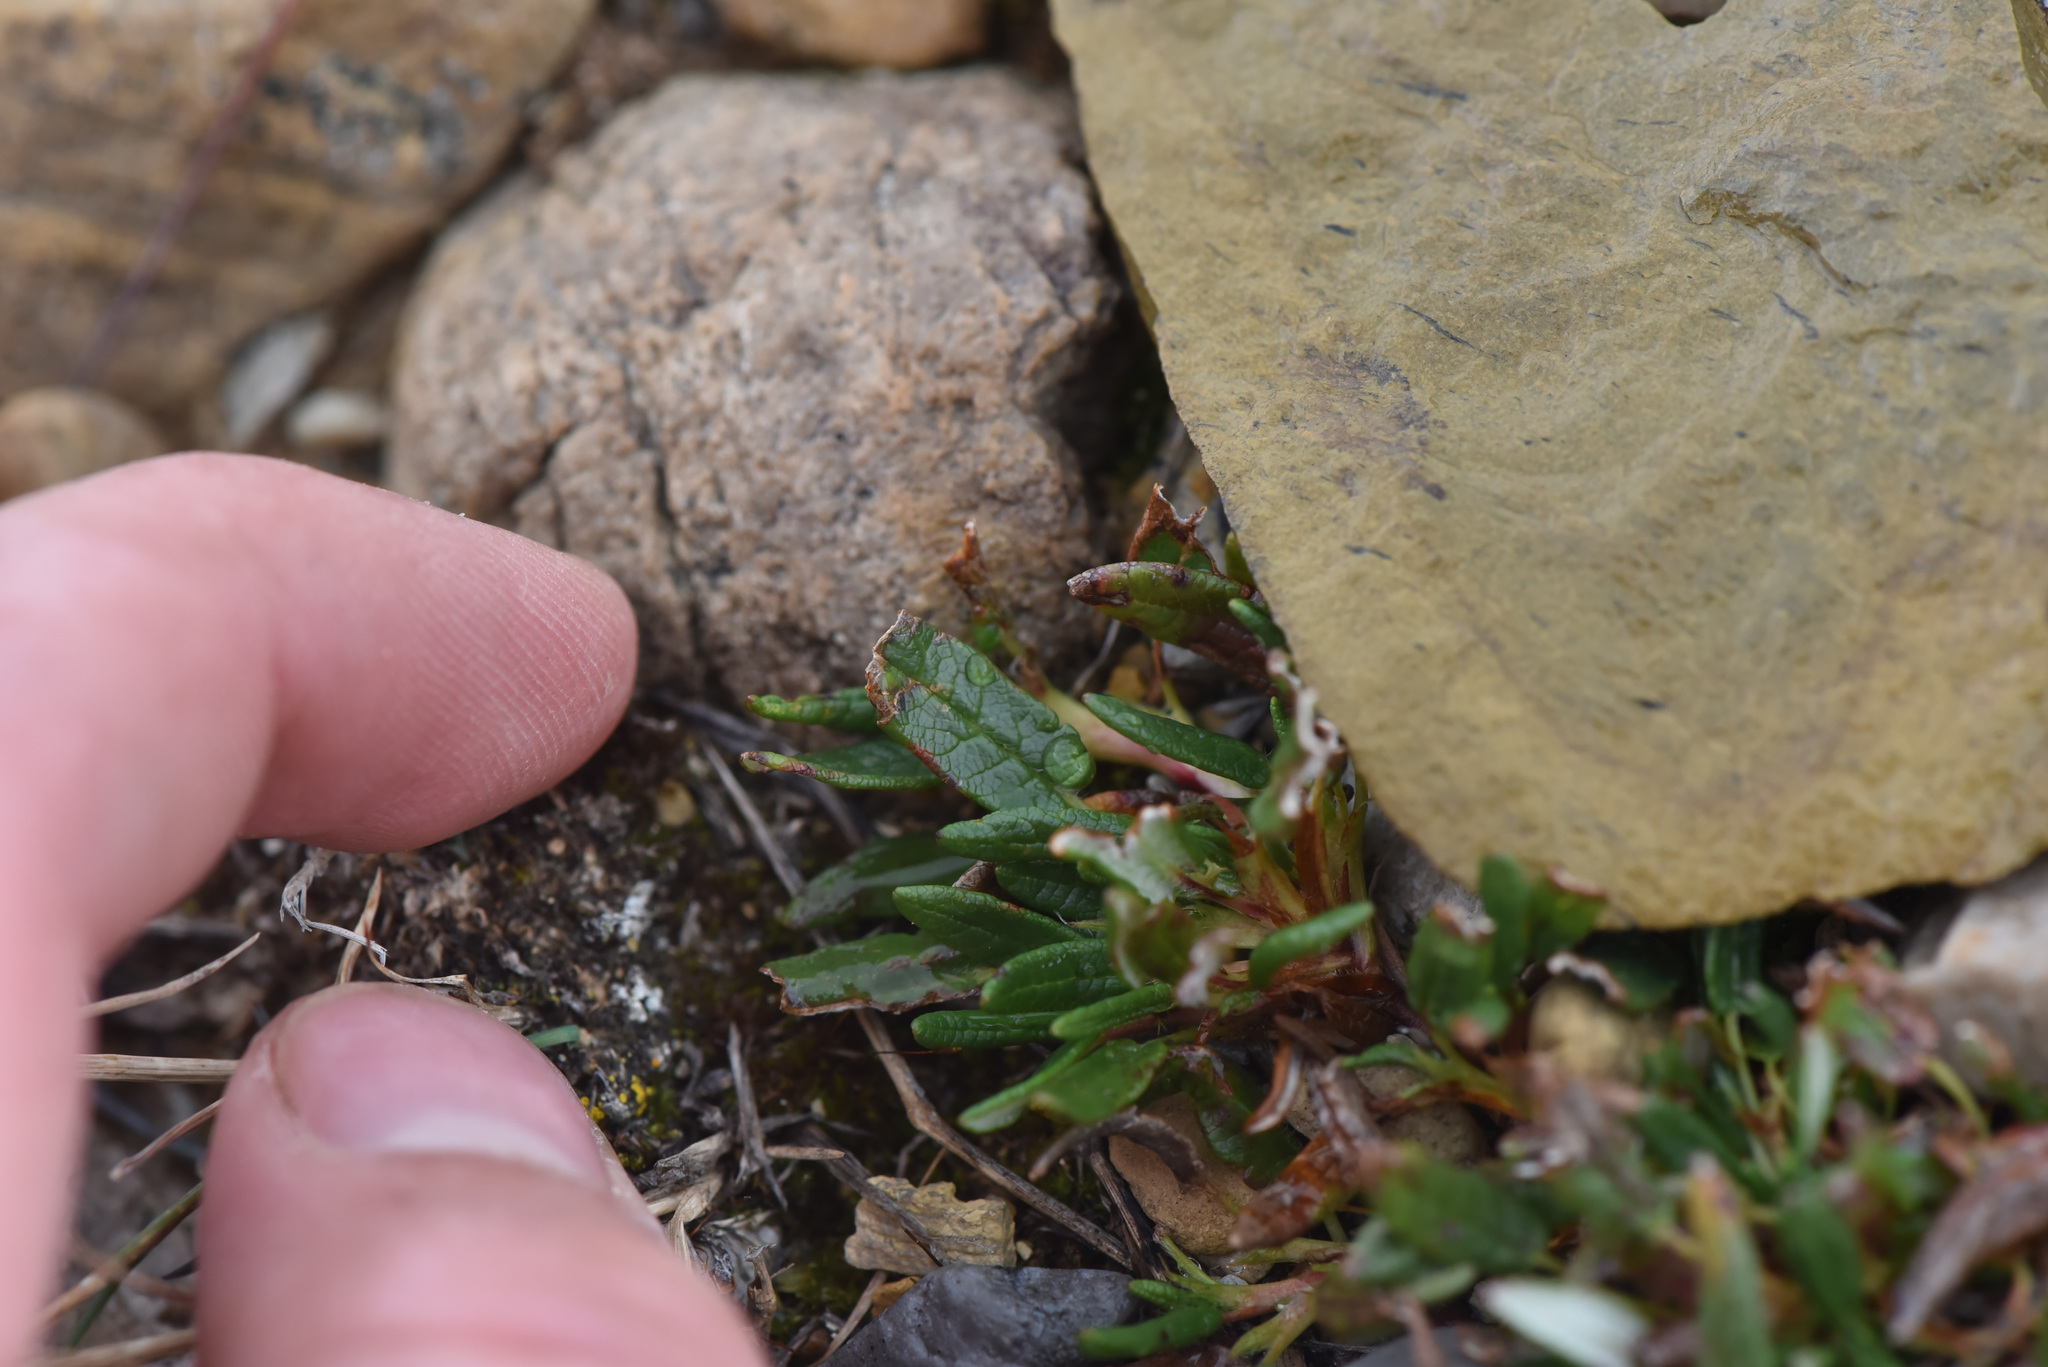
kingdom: Plantae
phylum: Tracheophyta
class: Magnoliopsida
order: Rosales
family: Rosaceae
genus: Dryas
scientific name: Dryas integrifolia
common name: Entire-leaved mountain avens
